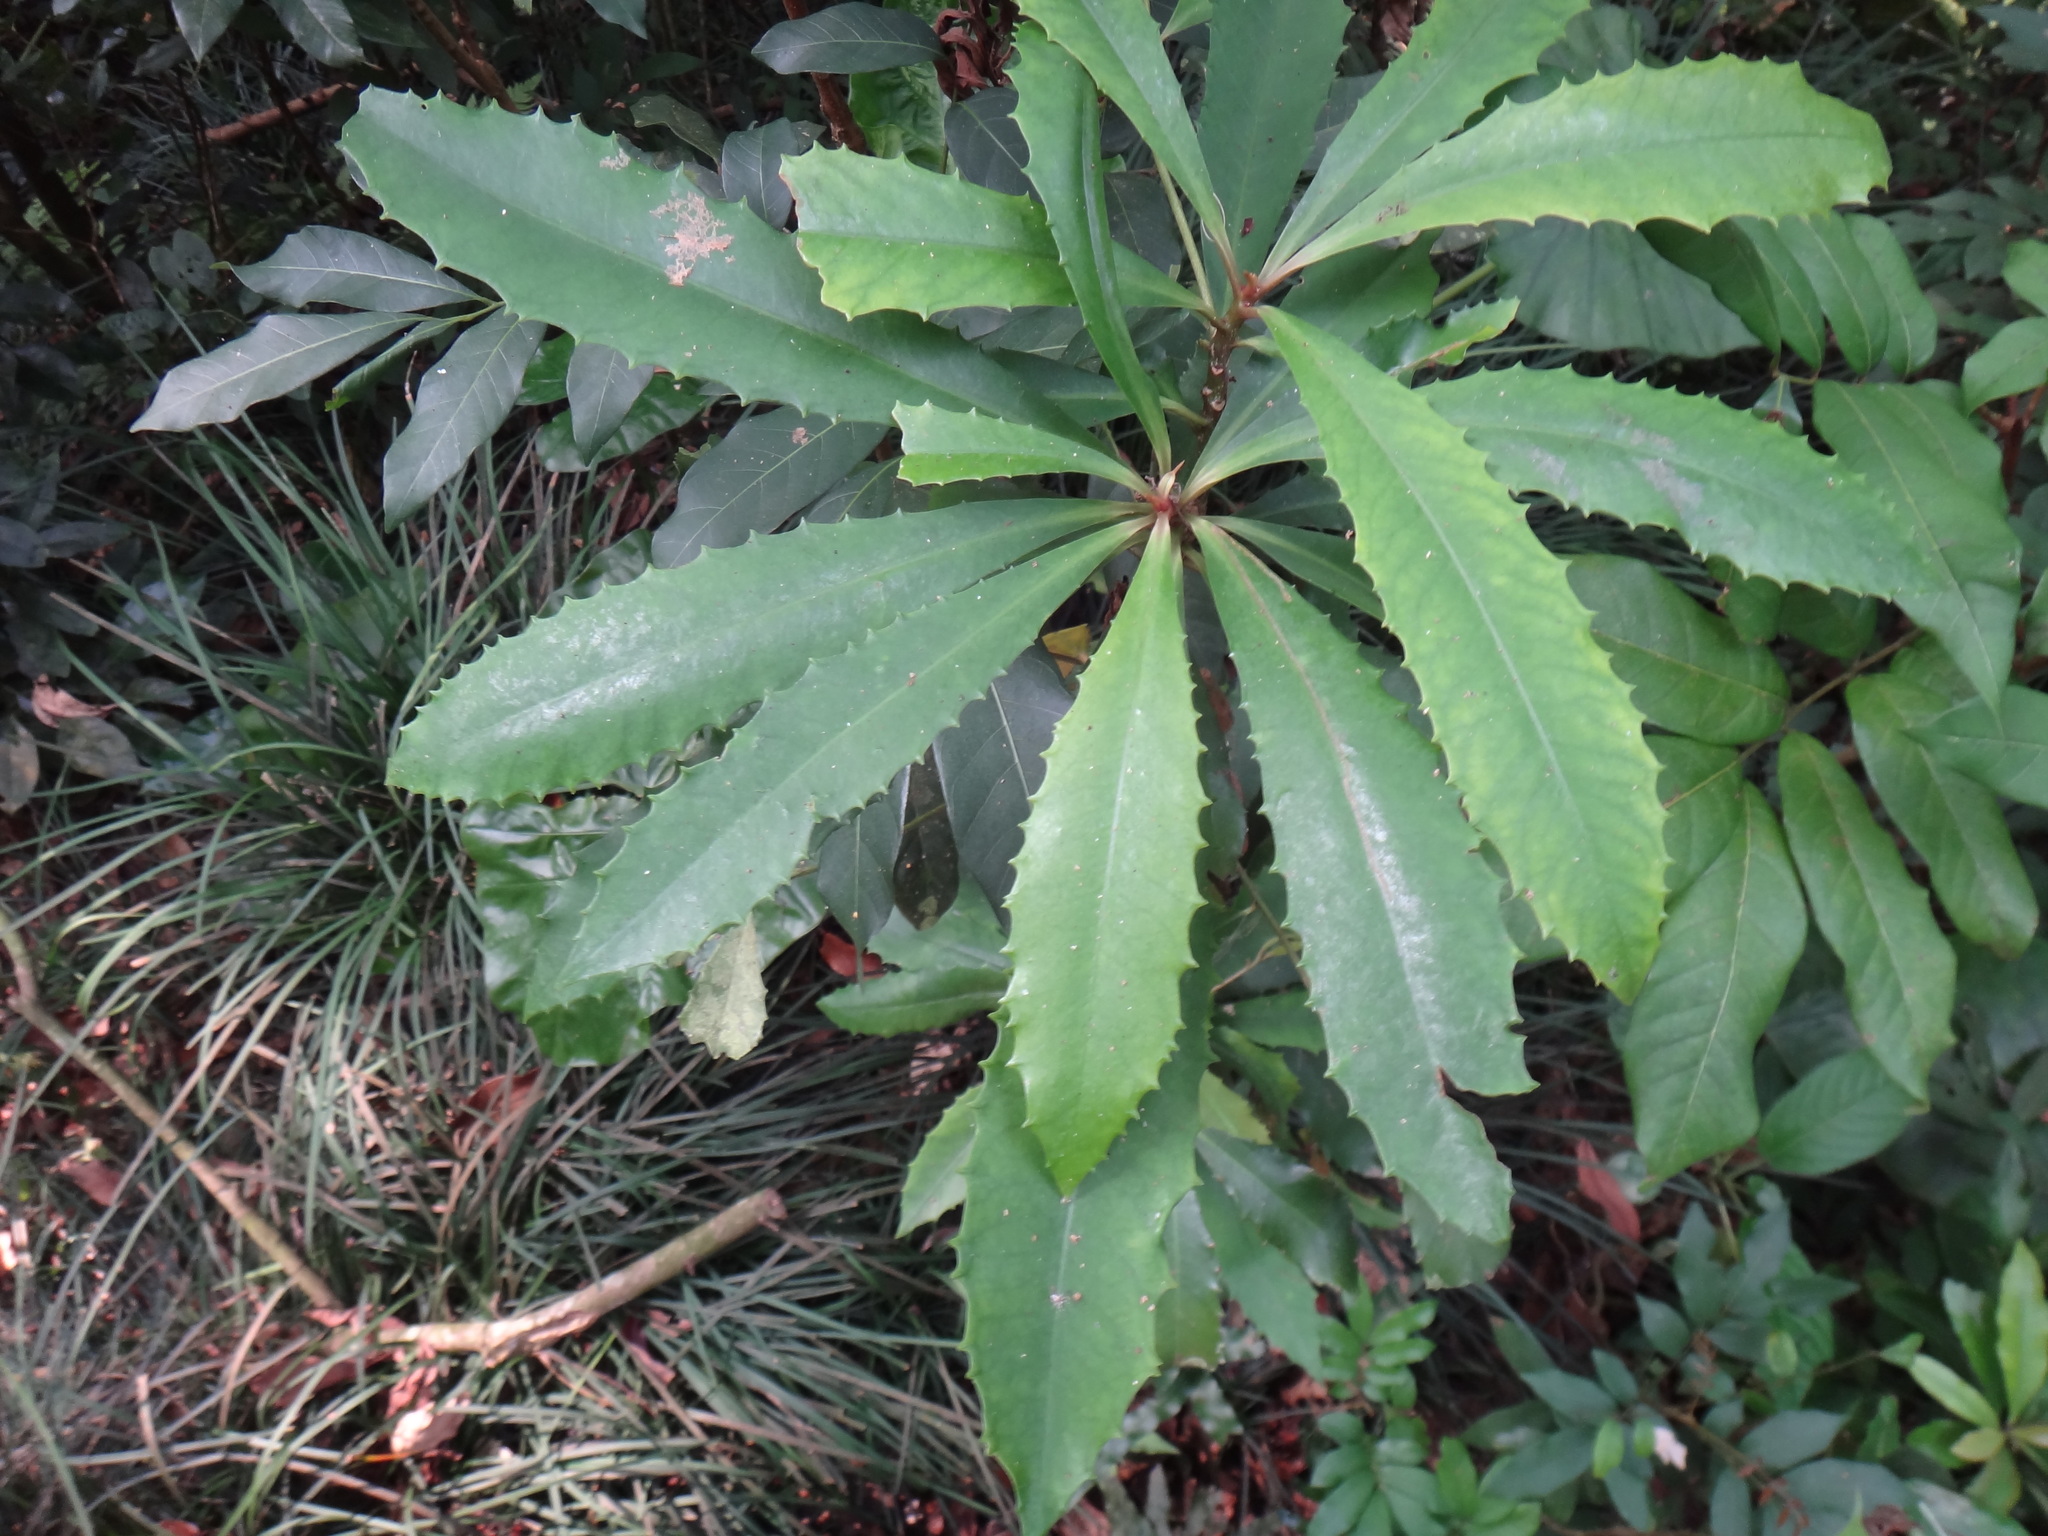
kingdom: Plantae
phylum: Tracheophyta
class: Magnoliopsida
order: Ericales
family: Primulaceae
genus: Ardisia
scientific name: Ardisia cornudentata
